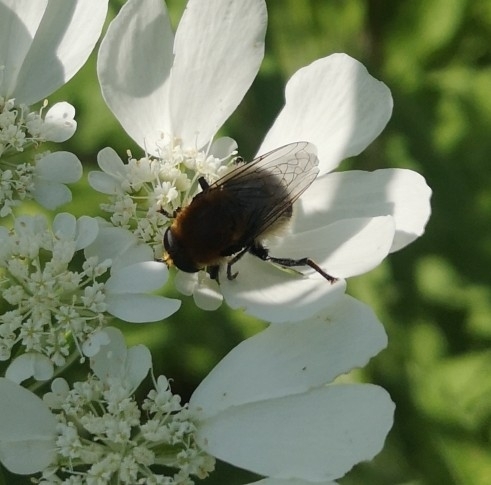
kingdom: Animalia
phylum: Arthropoda
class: Insecta
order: Diptera
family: Syrphidae
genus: Merodon
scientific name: Merodon equestris
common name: Greater bulb-fly
